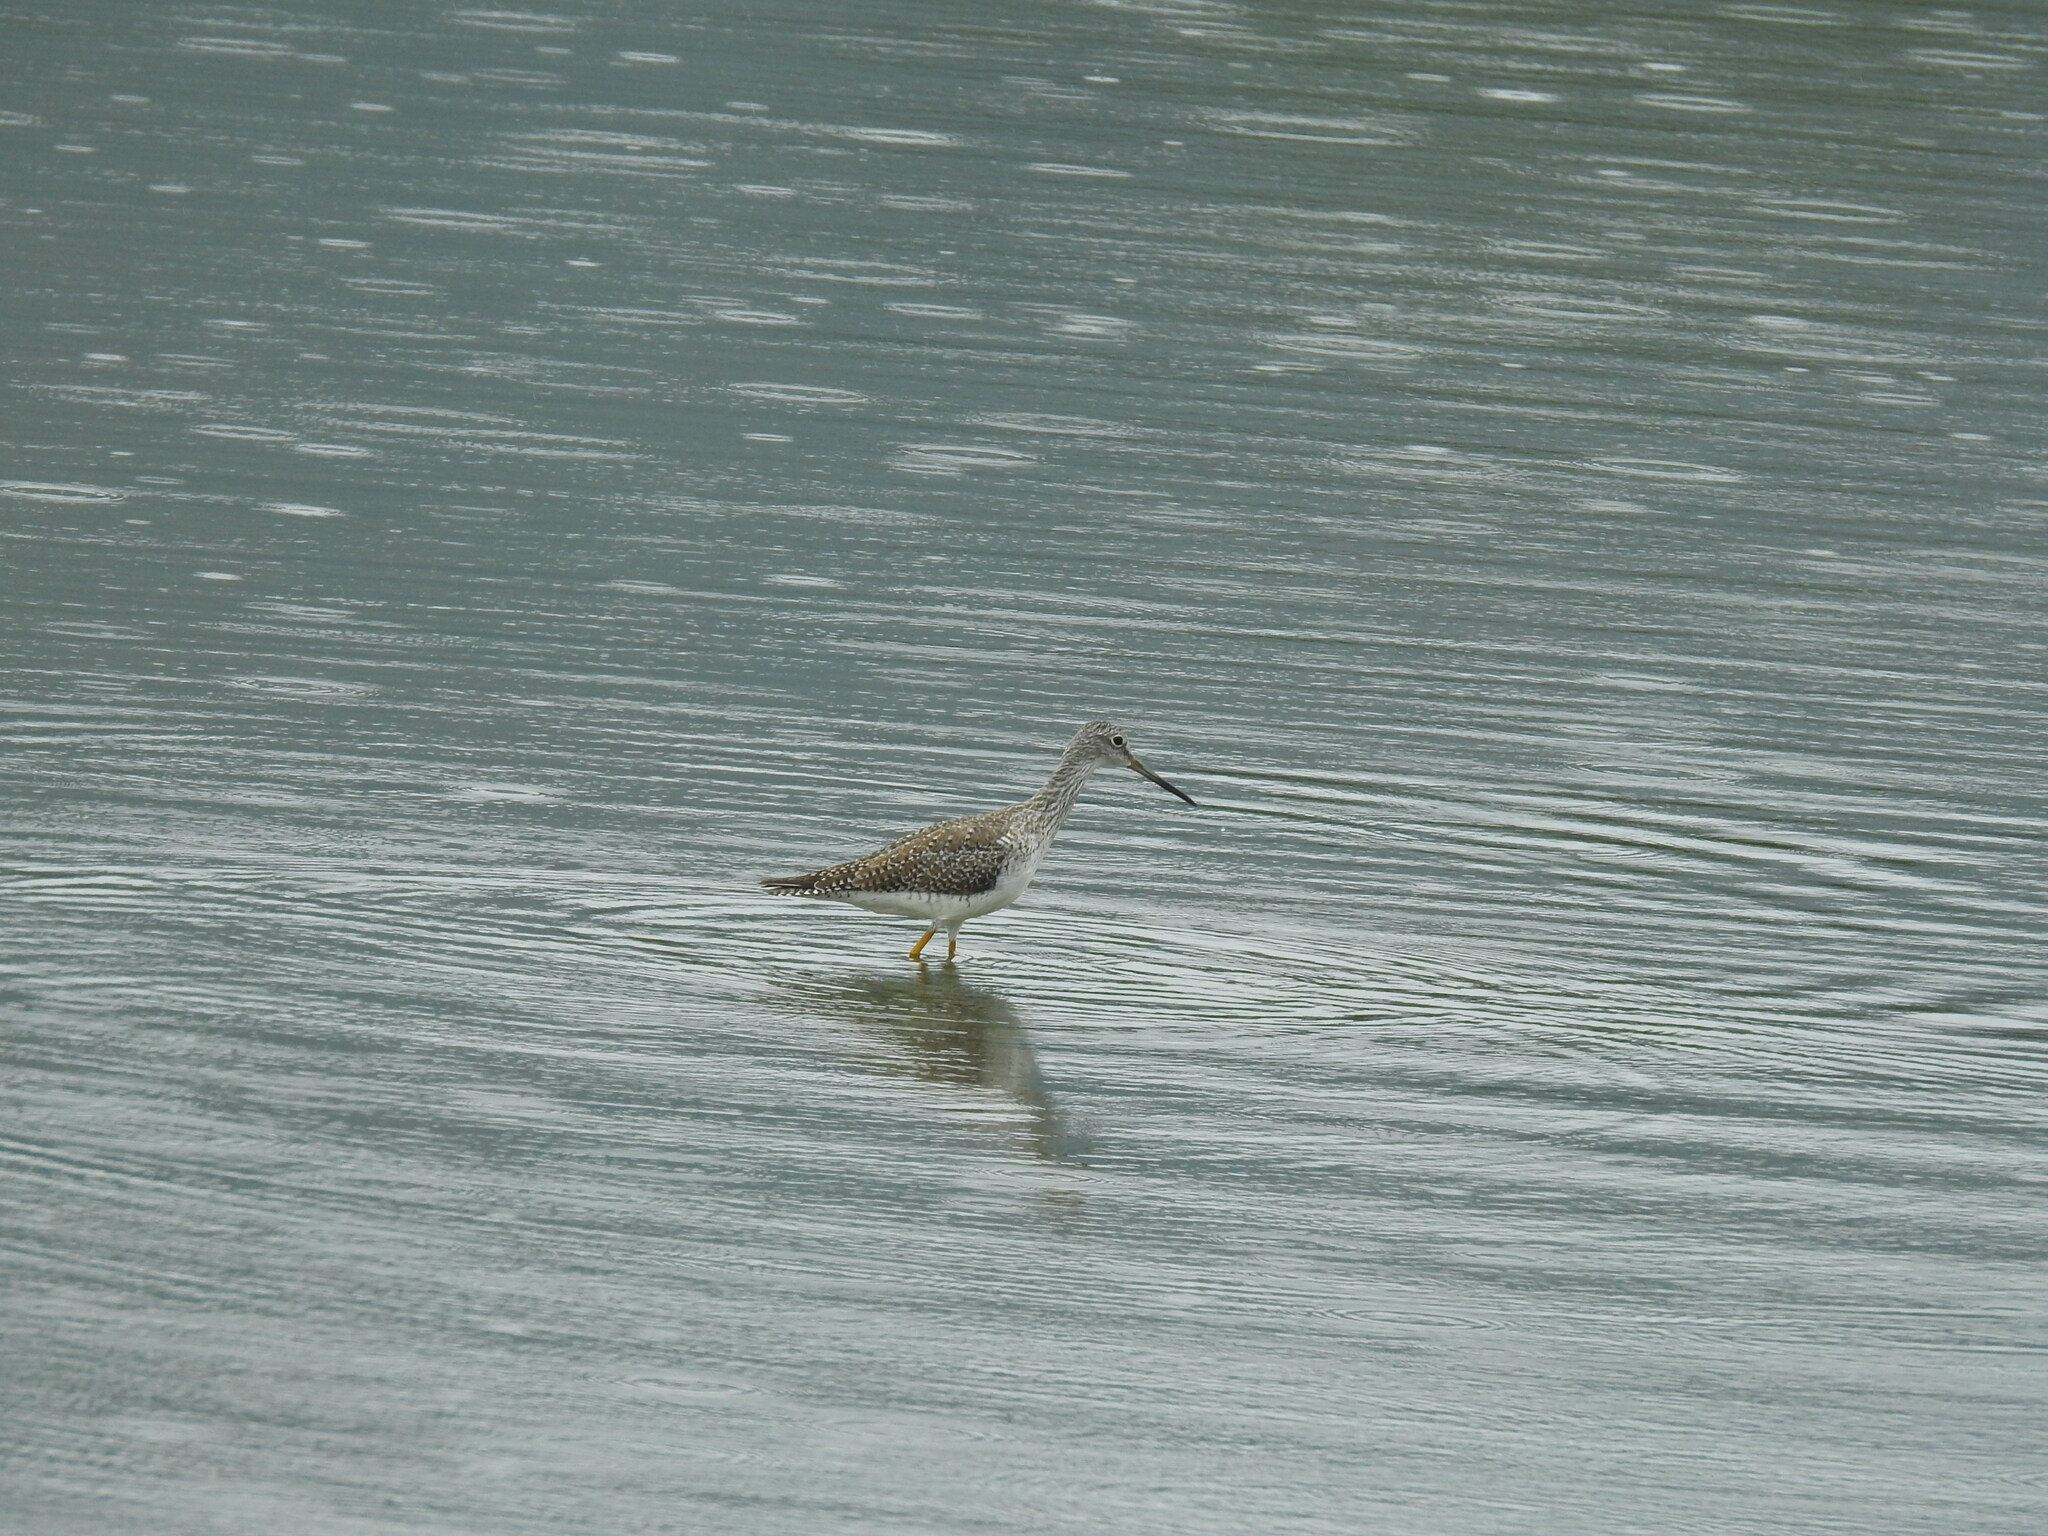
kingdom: Animalia
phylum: Chordata
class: Aves
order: Charadriiformes
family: Scolopacidae
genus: Tringa
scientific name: Tringa melanoleuca
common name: Greater yellowlegs
